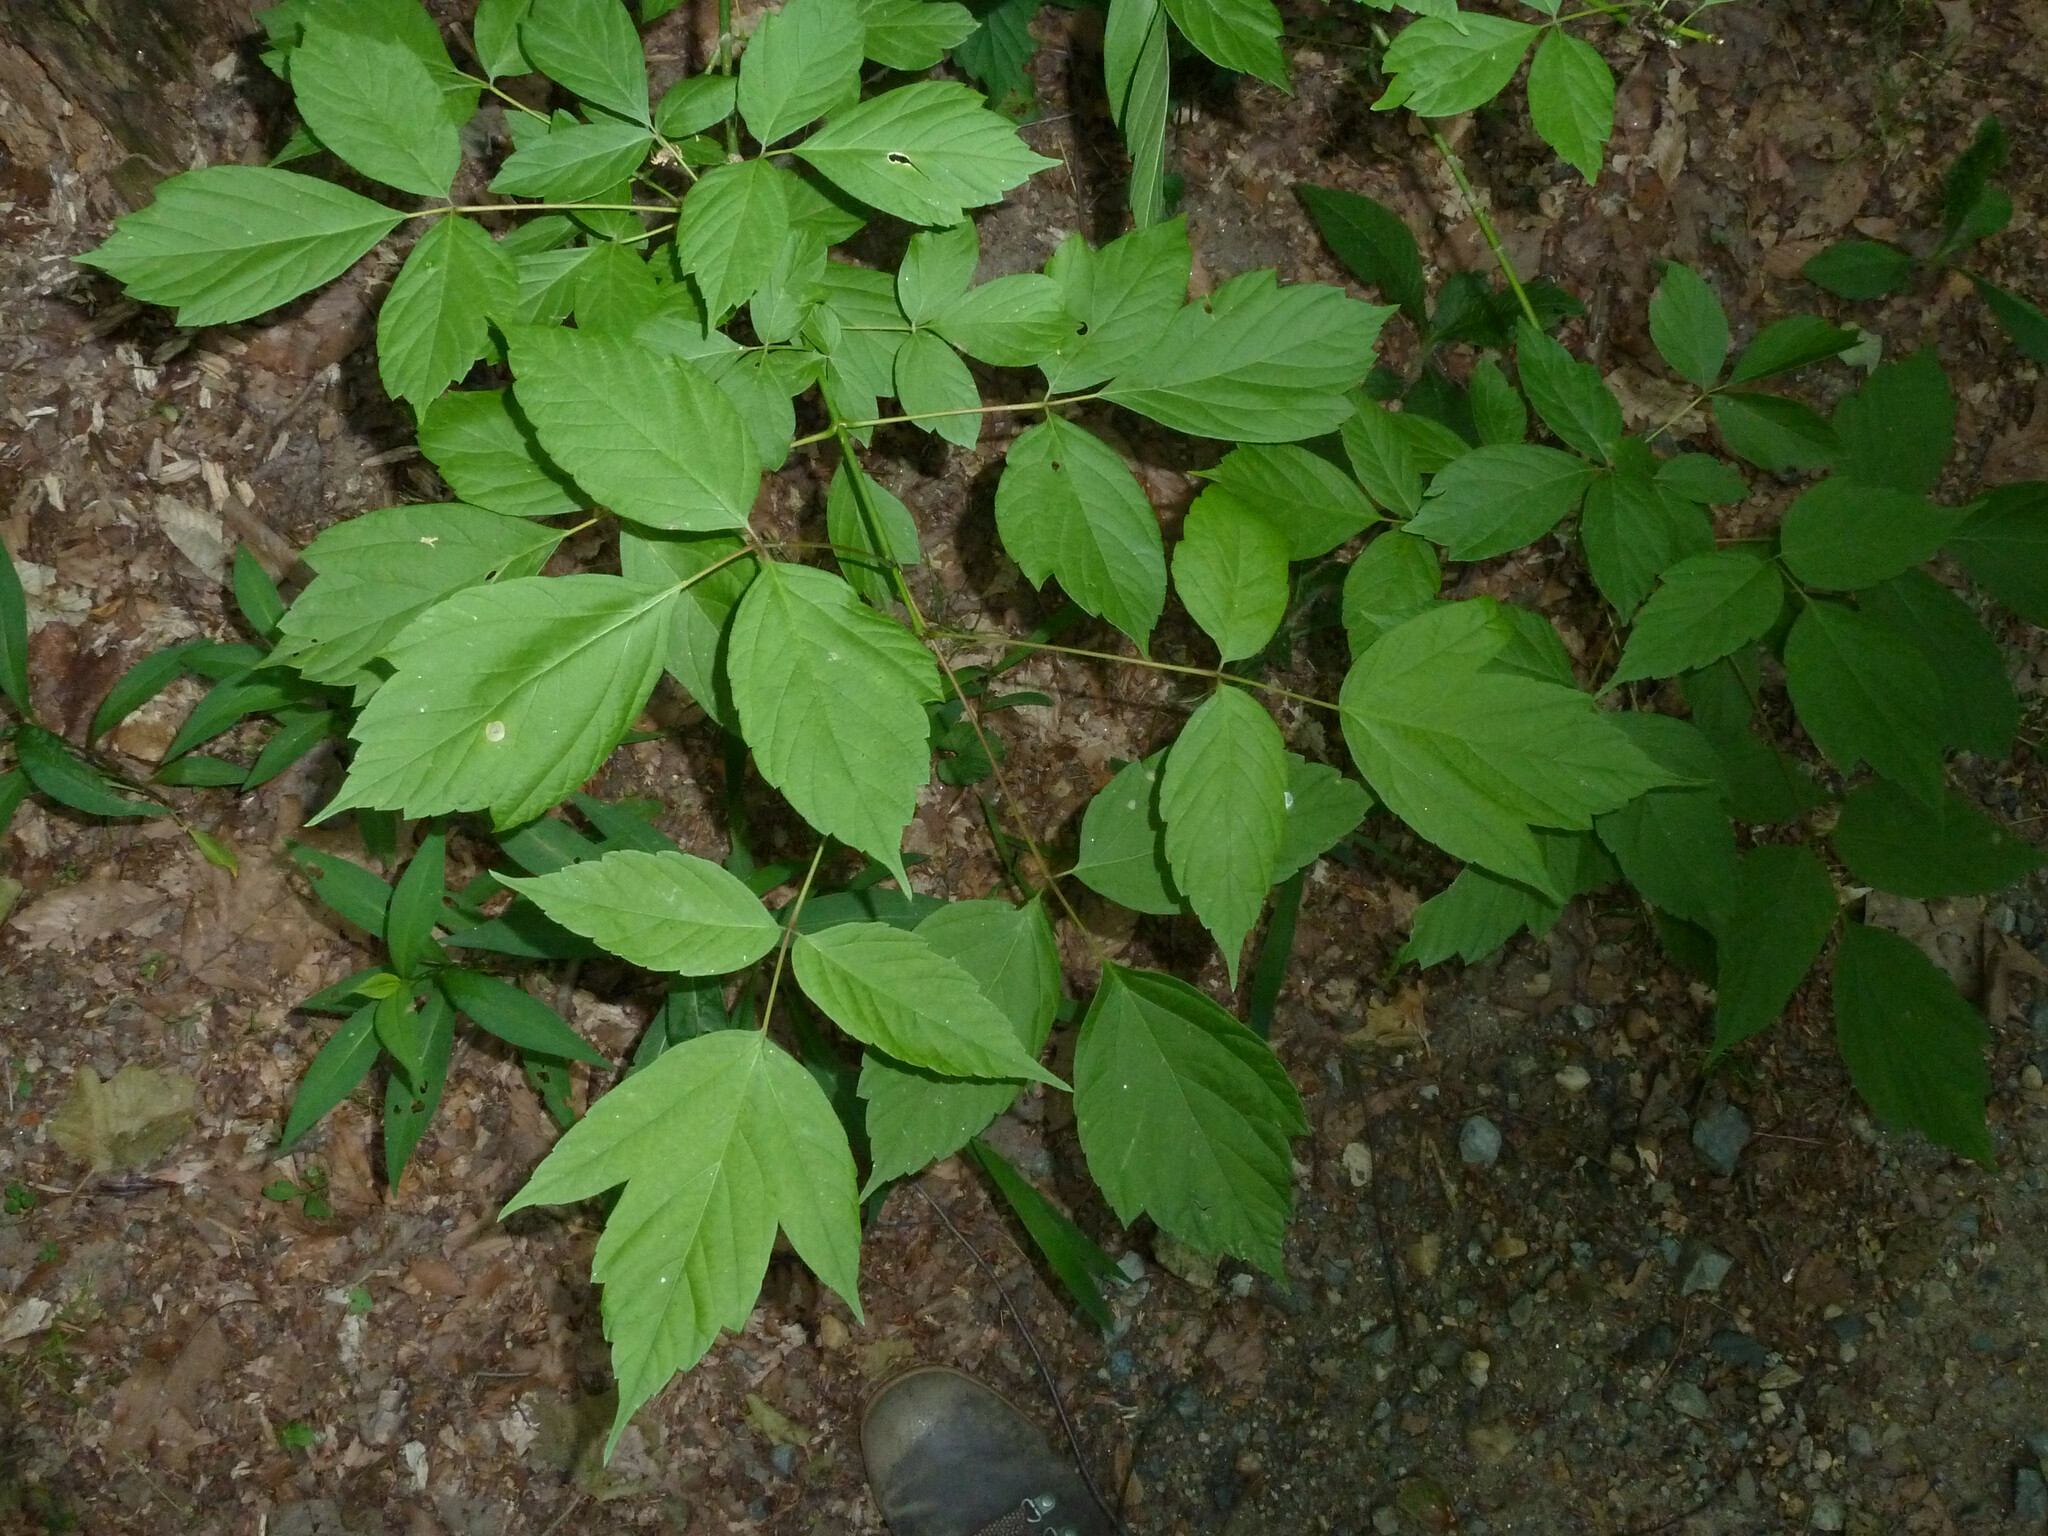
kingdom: Plantae
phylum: Tracheophyta
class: Magnoliopsida
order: Sapindales
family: Sapindaceae
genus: Acer
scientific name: Acer negundo
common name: Ashleaf maple
